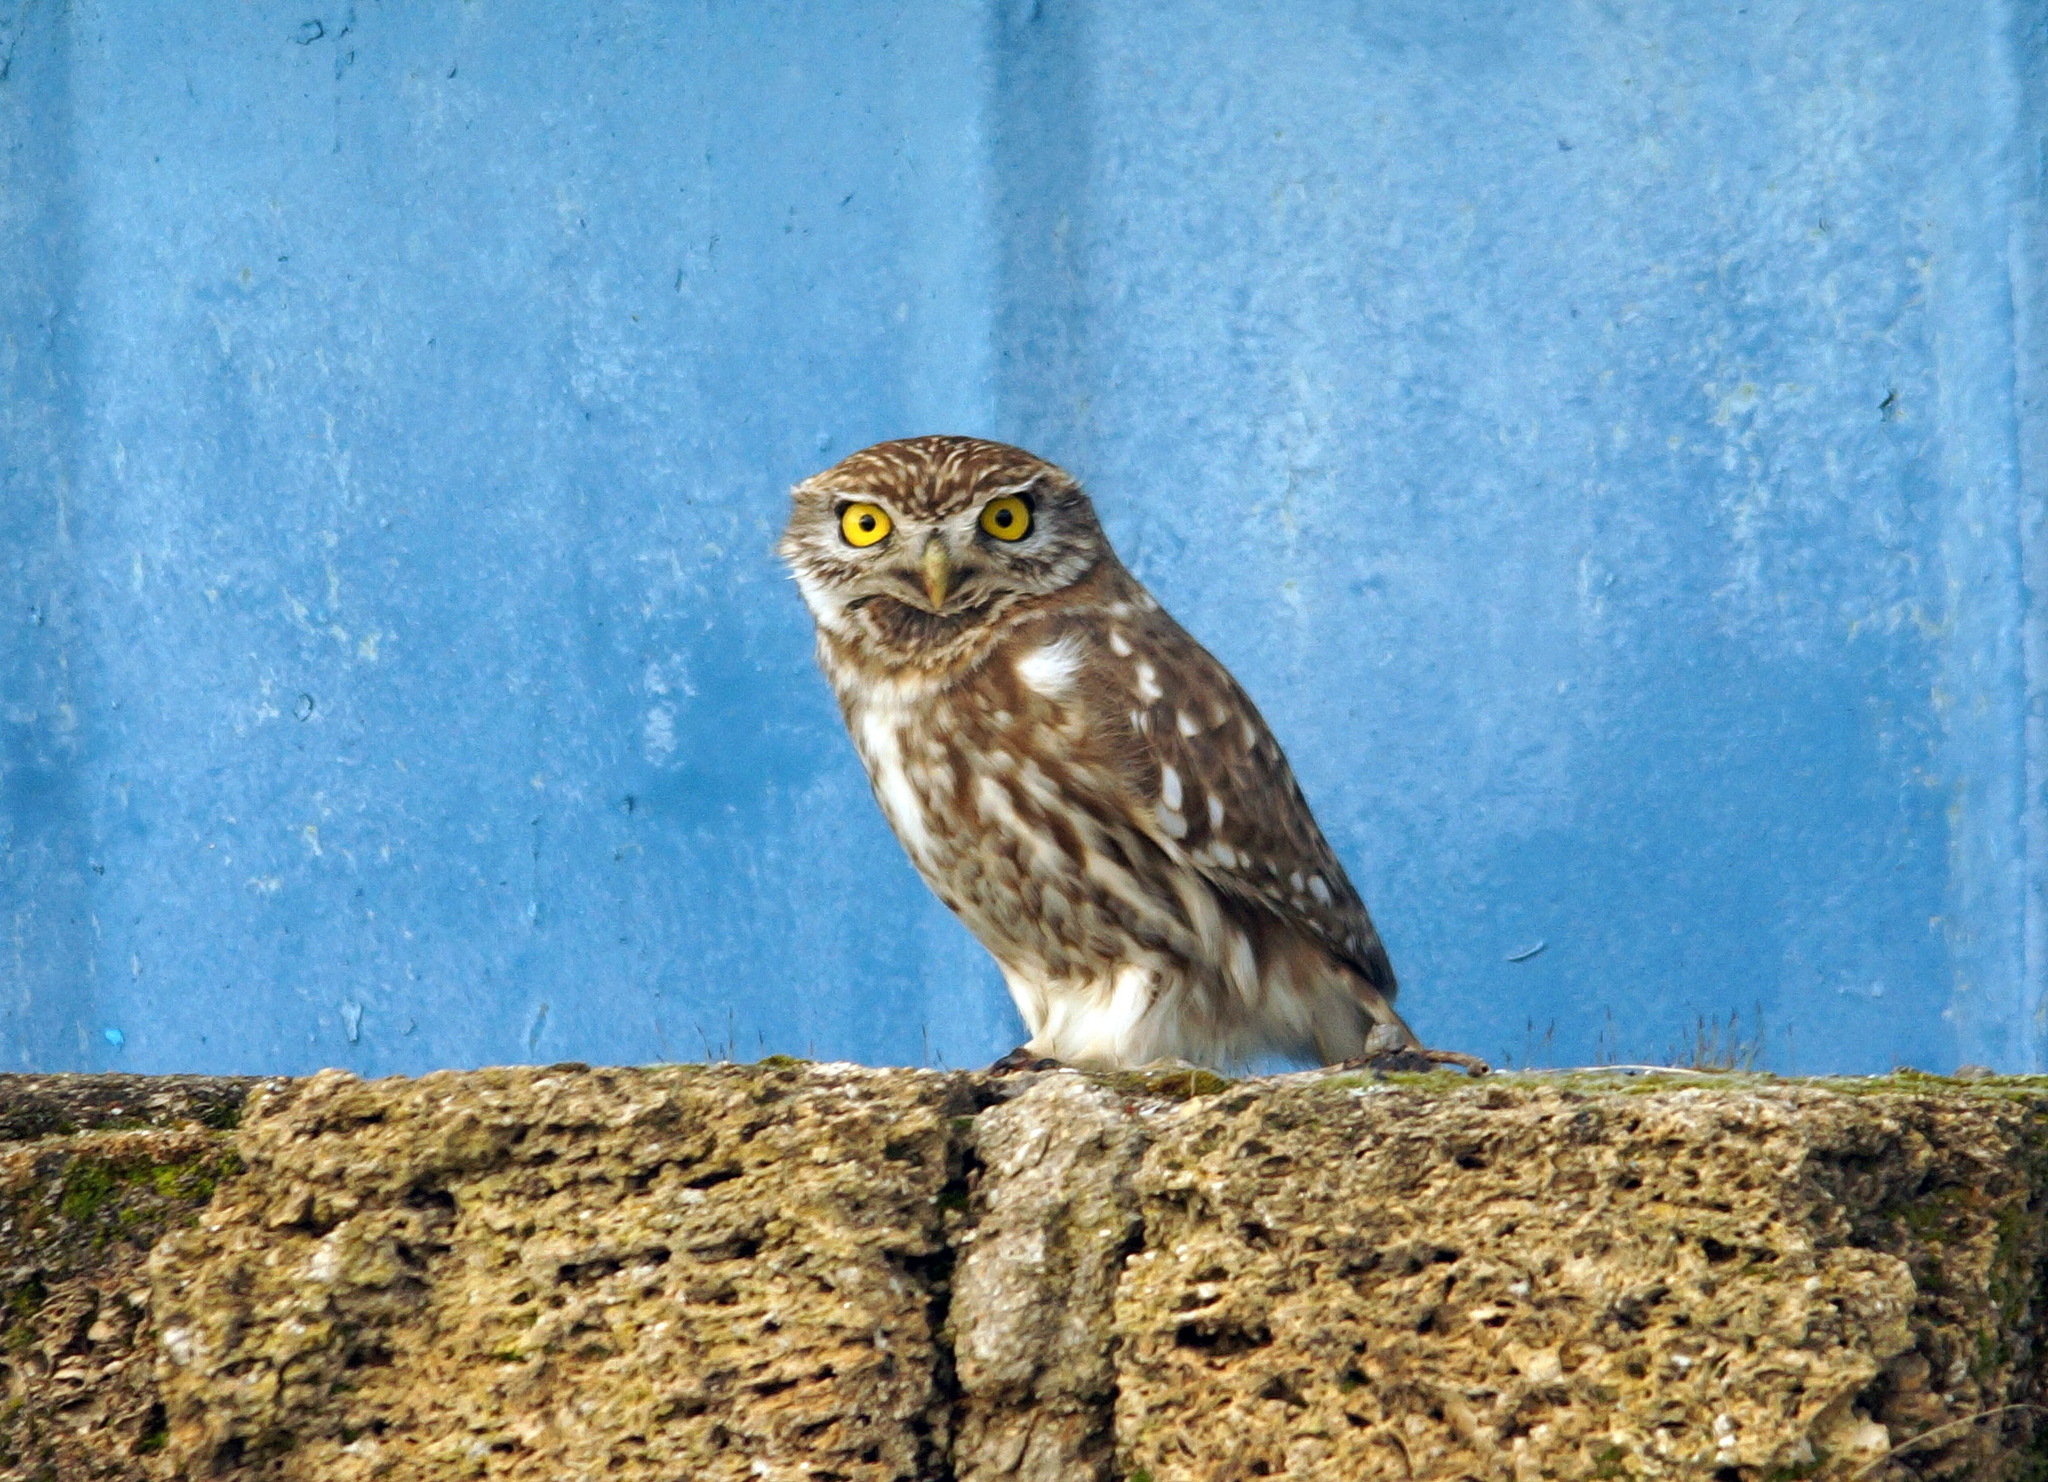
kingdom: Animalia
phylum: Chordata
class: Aves
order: Strigiformes
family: Strigidae
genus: Athene
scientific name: Athene noctua
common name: Little owl
